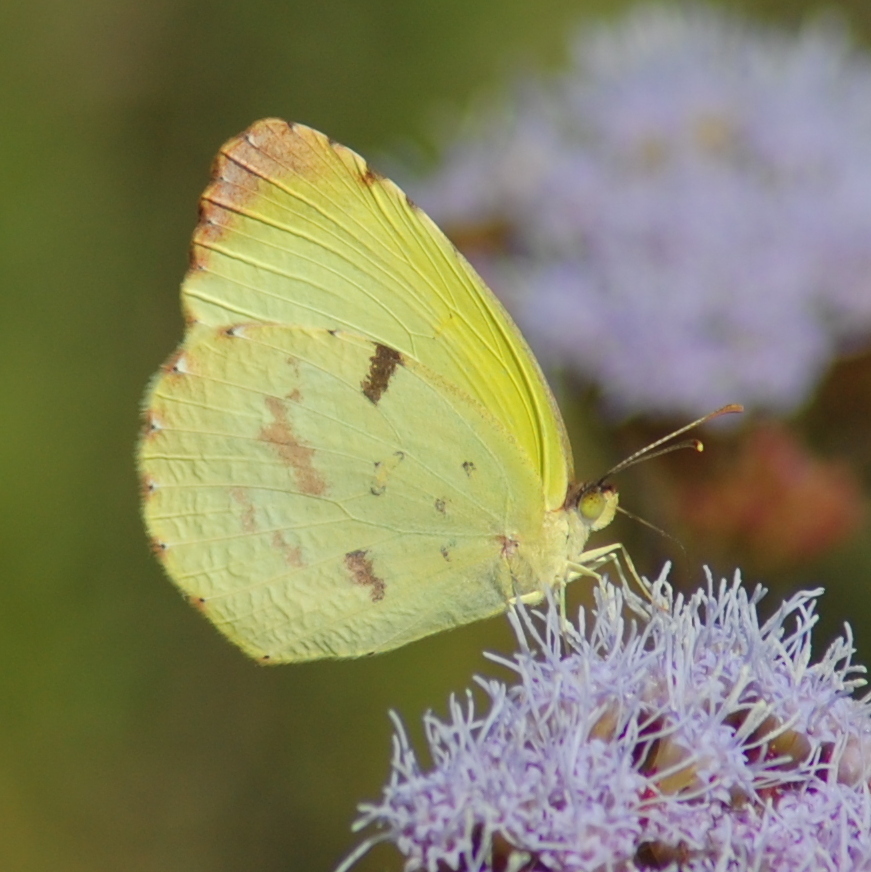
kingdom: Animalia
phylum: Arthropoda
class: Insecta
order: Lepidoptera
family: Pieridae
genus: Teriocolias
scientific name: Teriocolias
